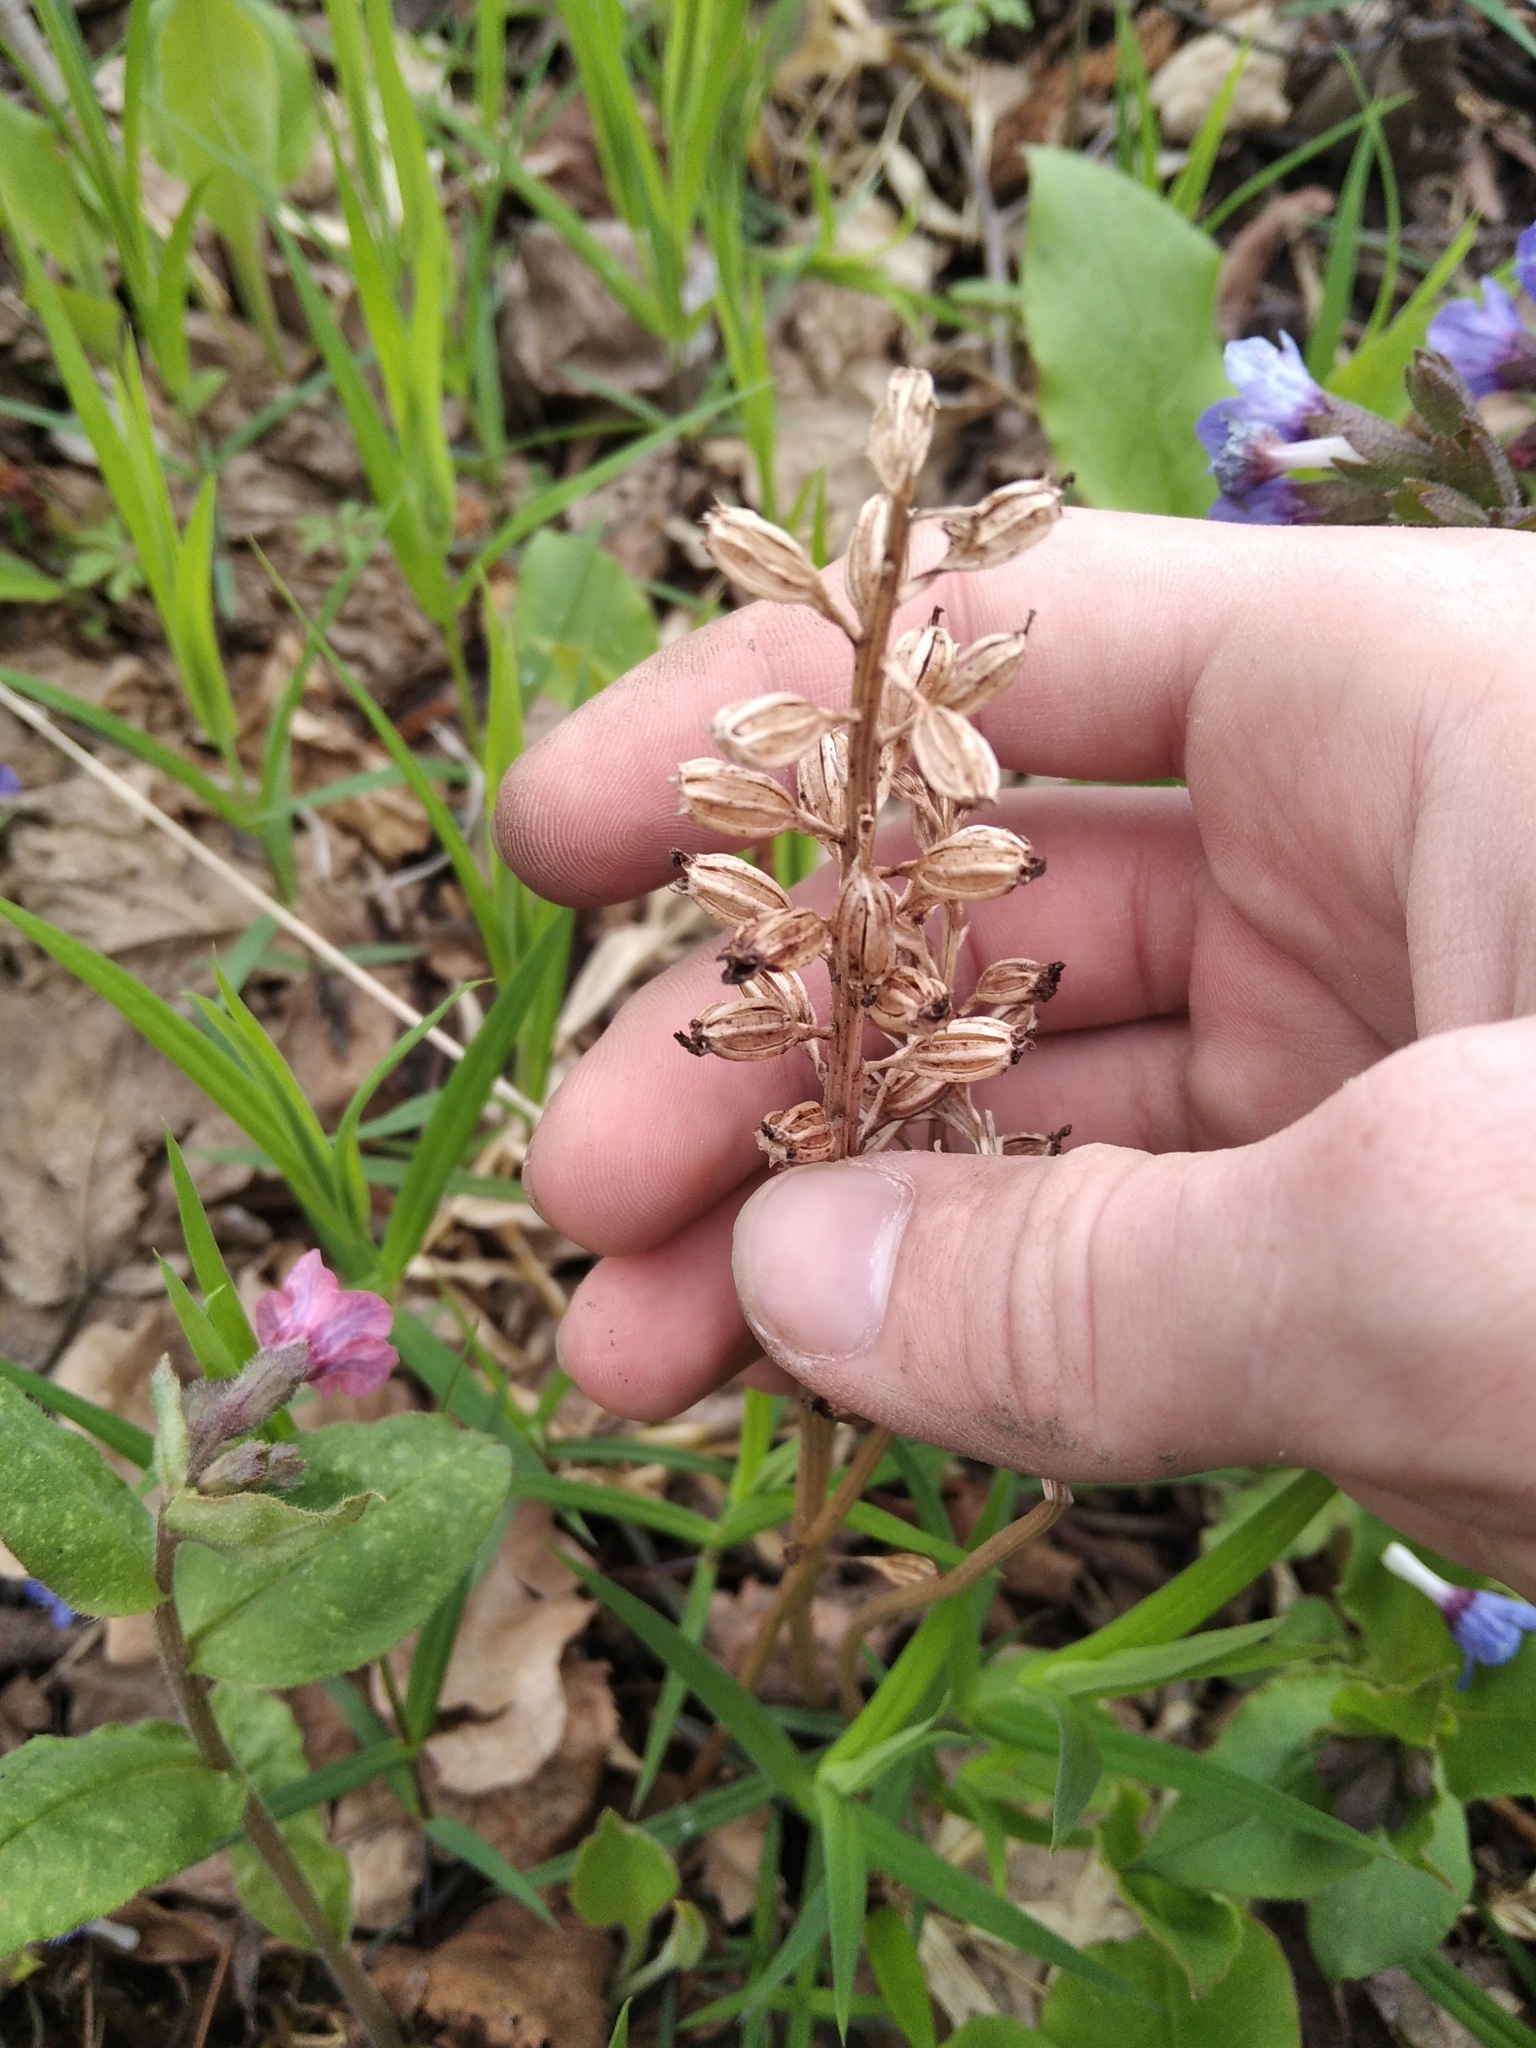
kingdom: Plantae
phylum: Tracheophyta
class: Liliopsida
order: Asparagales
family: Orchidaceae
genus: Neottia
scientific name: Neottia nidus-avis
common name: Bird's-nest orchid
